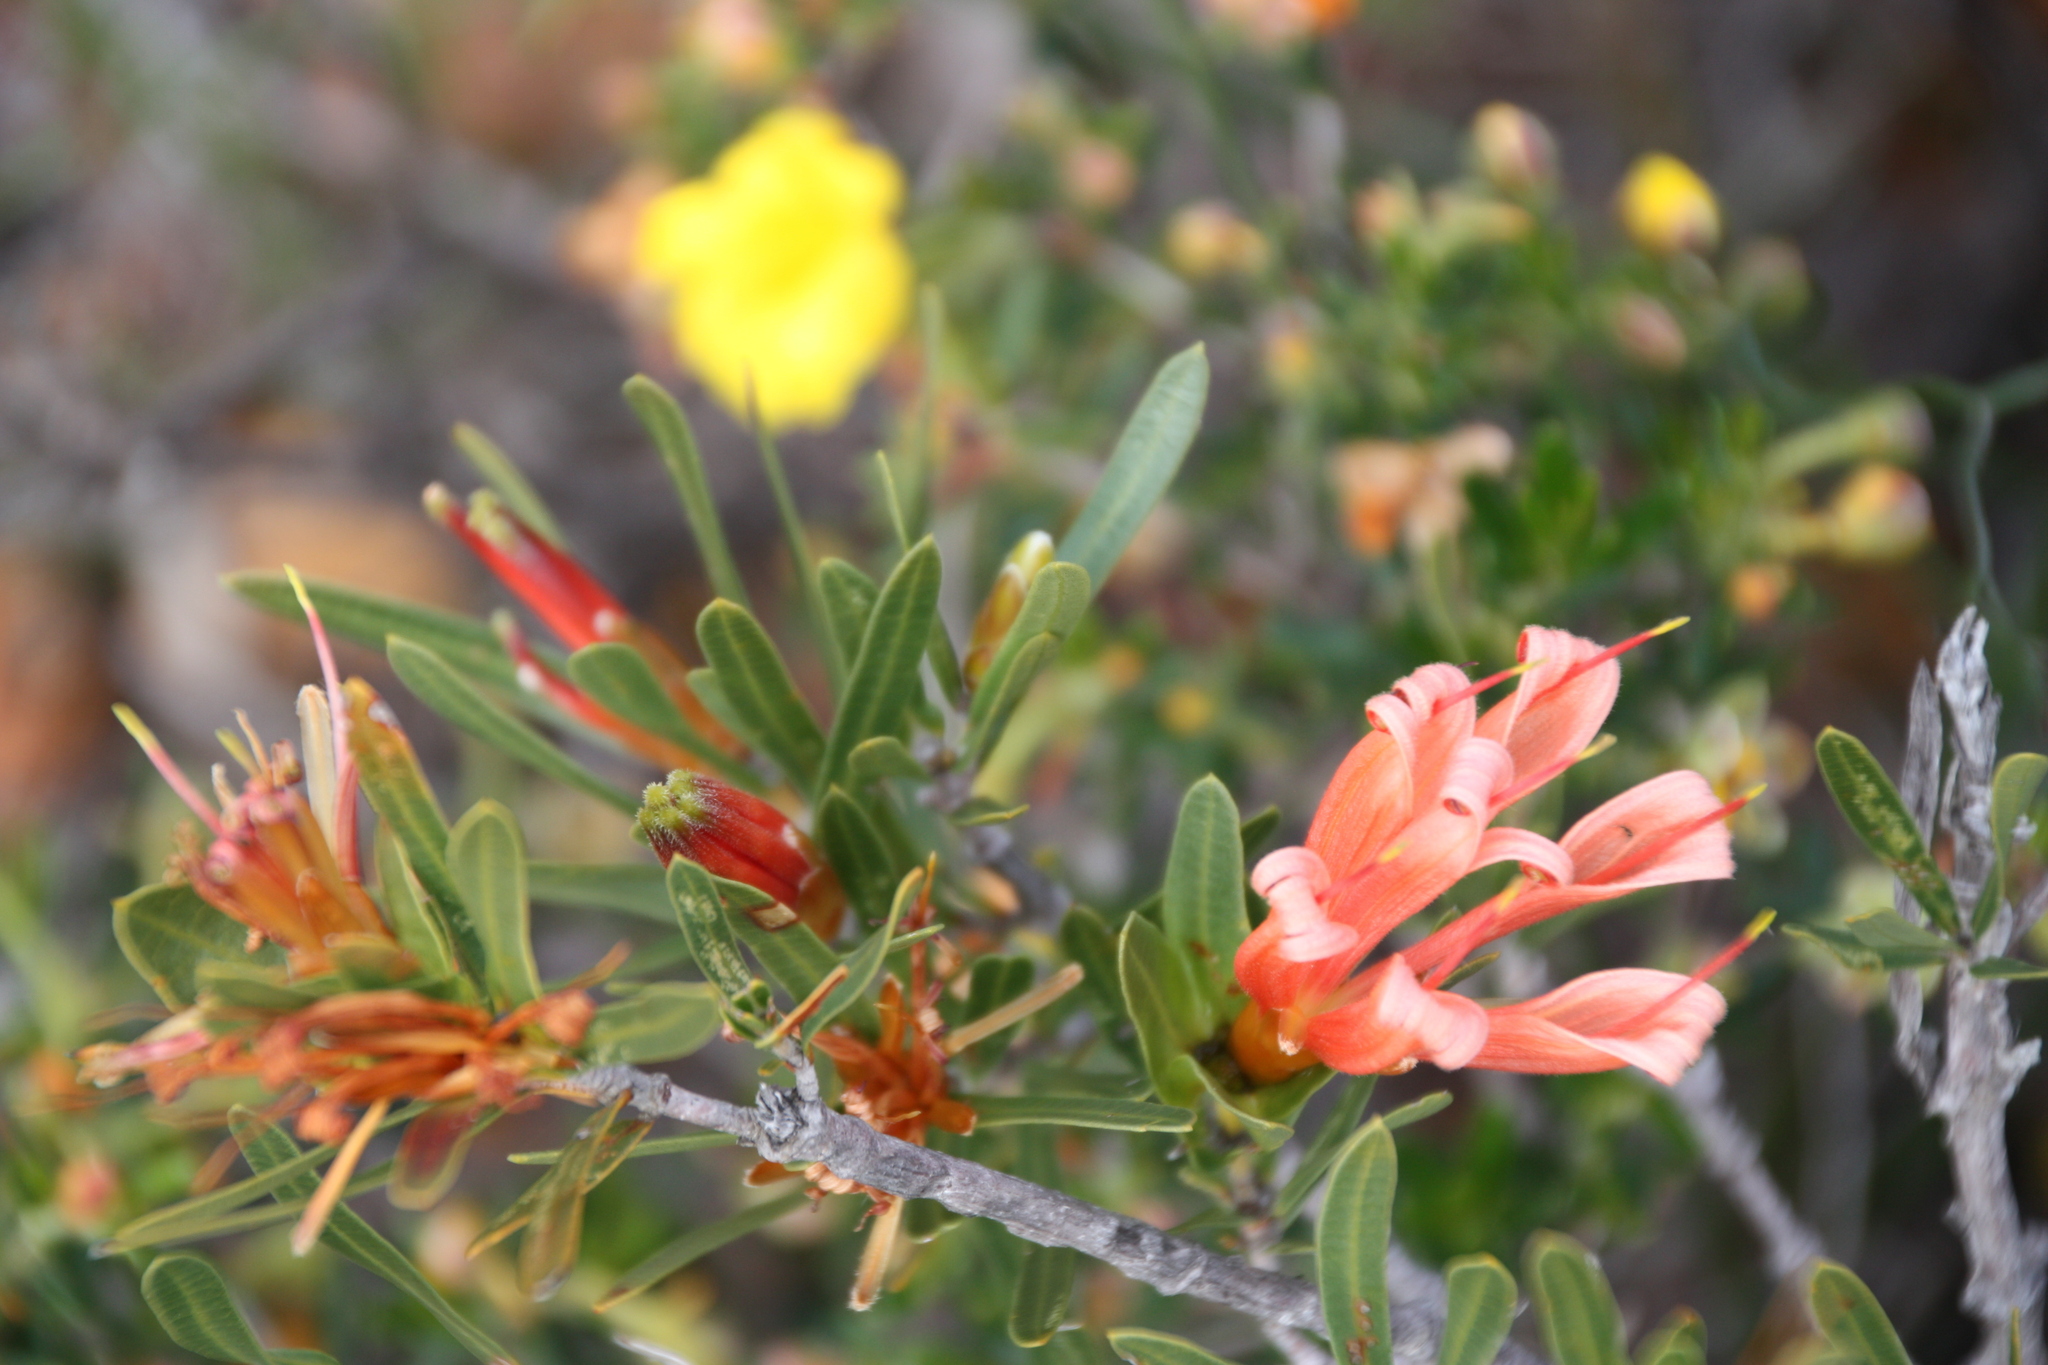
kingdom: Plantae
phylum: Tracheophyta
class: Magnoliopsida
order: Proteales
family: Proteaceae
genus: Lambertia
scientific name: Lambertia multiflora
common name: Many-flowered honeysuckle
